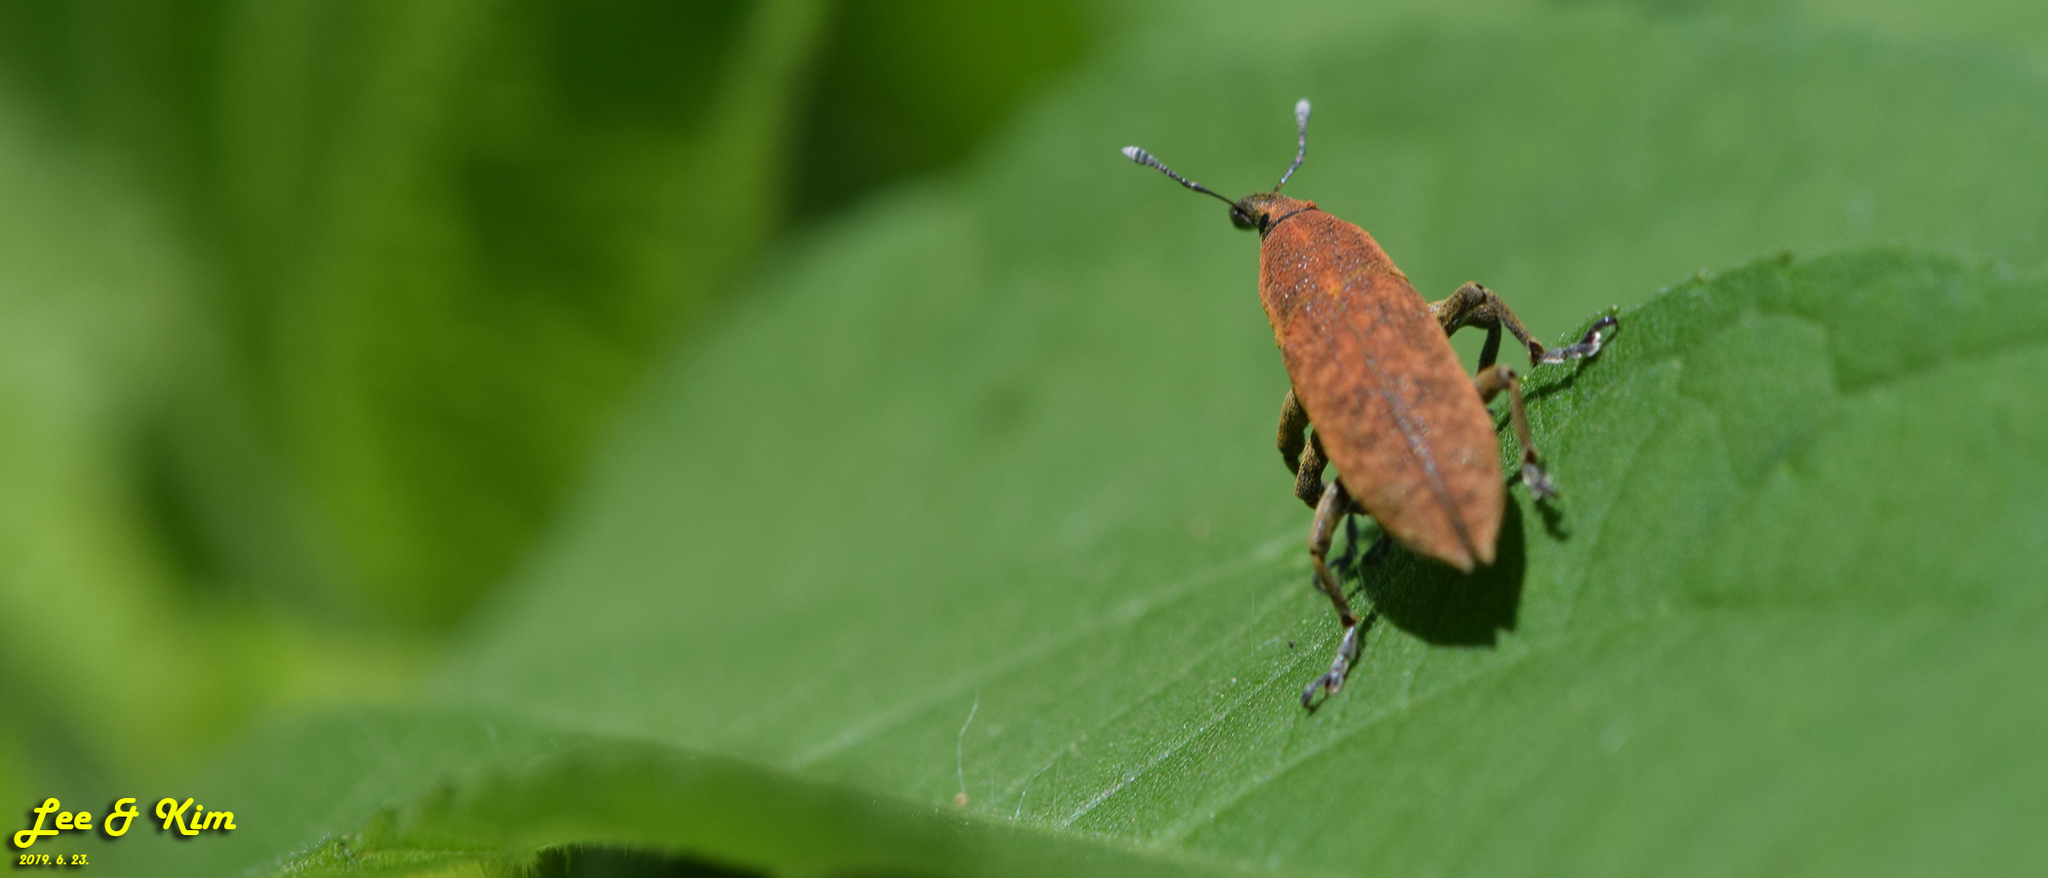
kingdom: Animalia
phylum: Arthropoda
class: Insecta
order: Coleoptera
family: Curculionidae
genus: Lixus
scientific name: Lixus impressiventris
